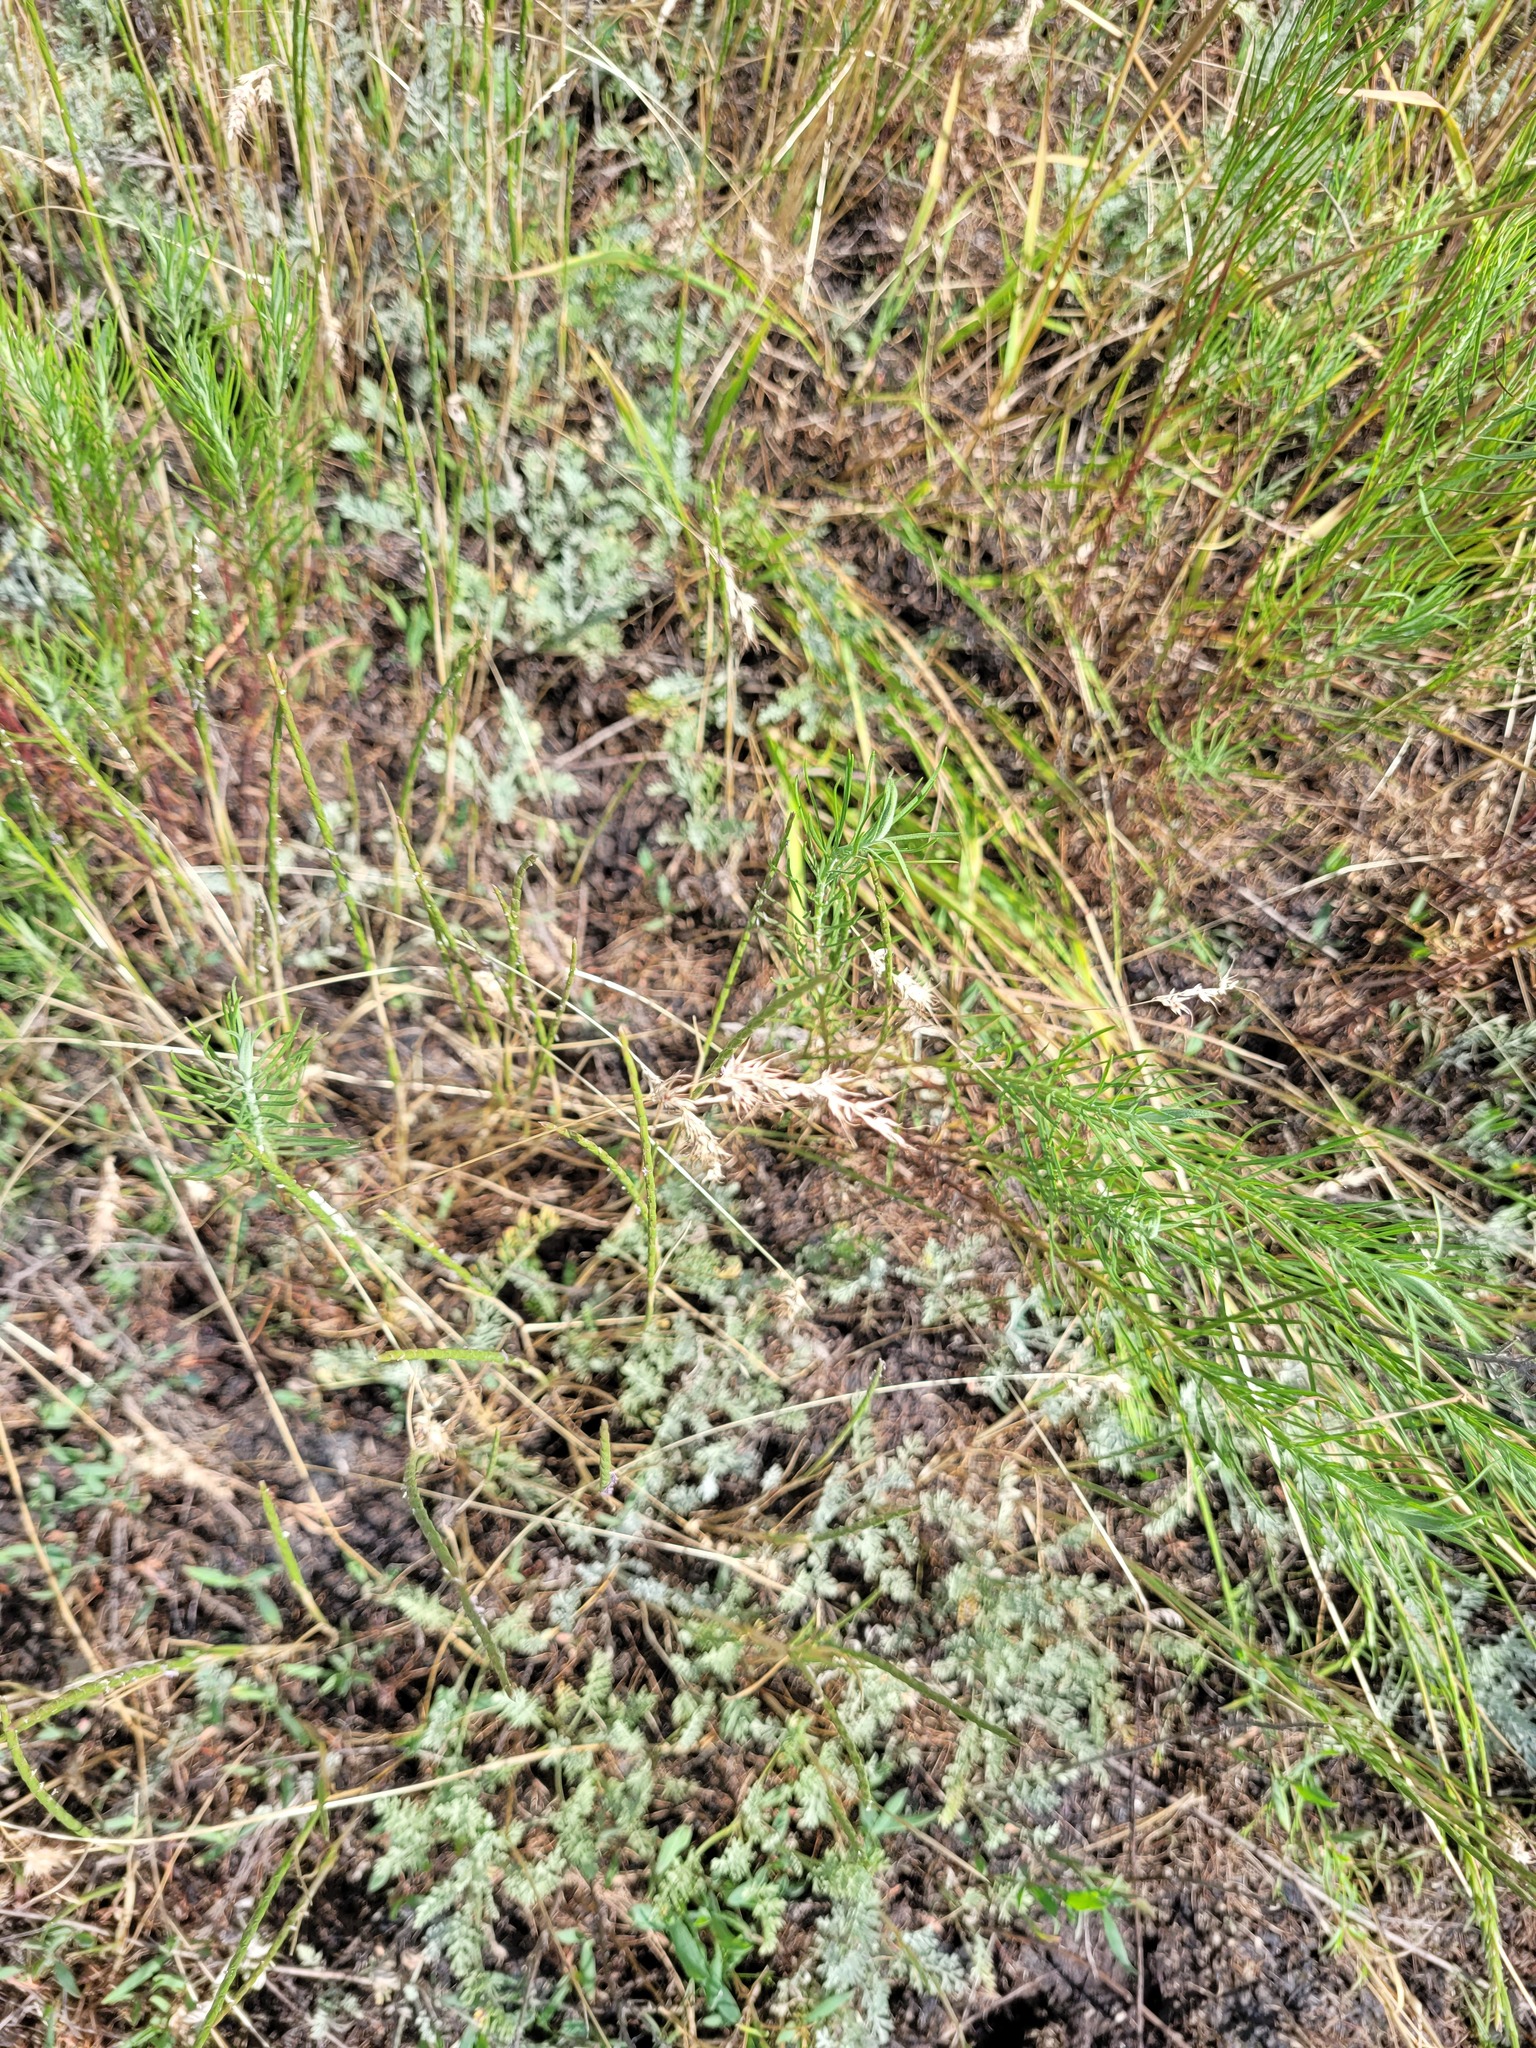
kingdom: Plantae
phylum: Tracheophyta
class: Liliopsida
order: Poales
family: Poaceae
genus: Poa
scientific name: Poa bulbosa
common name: Bulbous bluegrass
